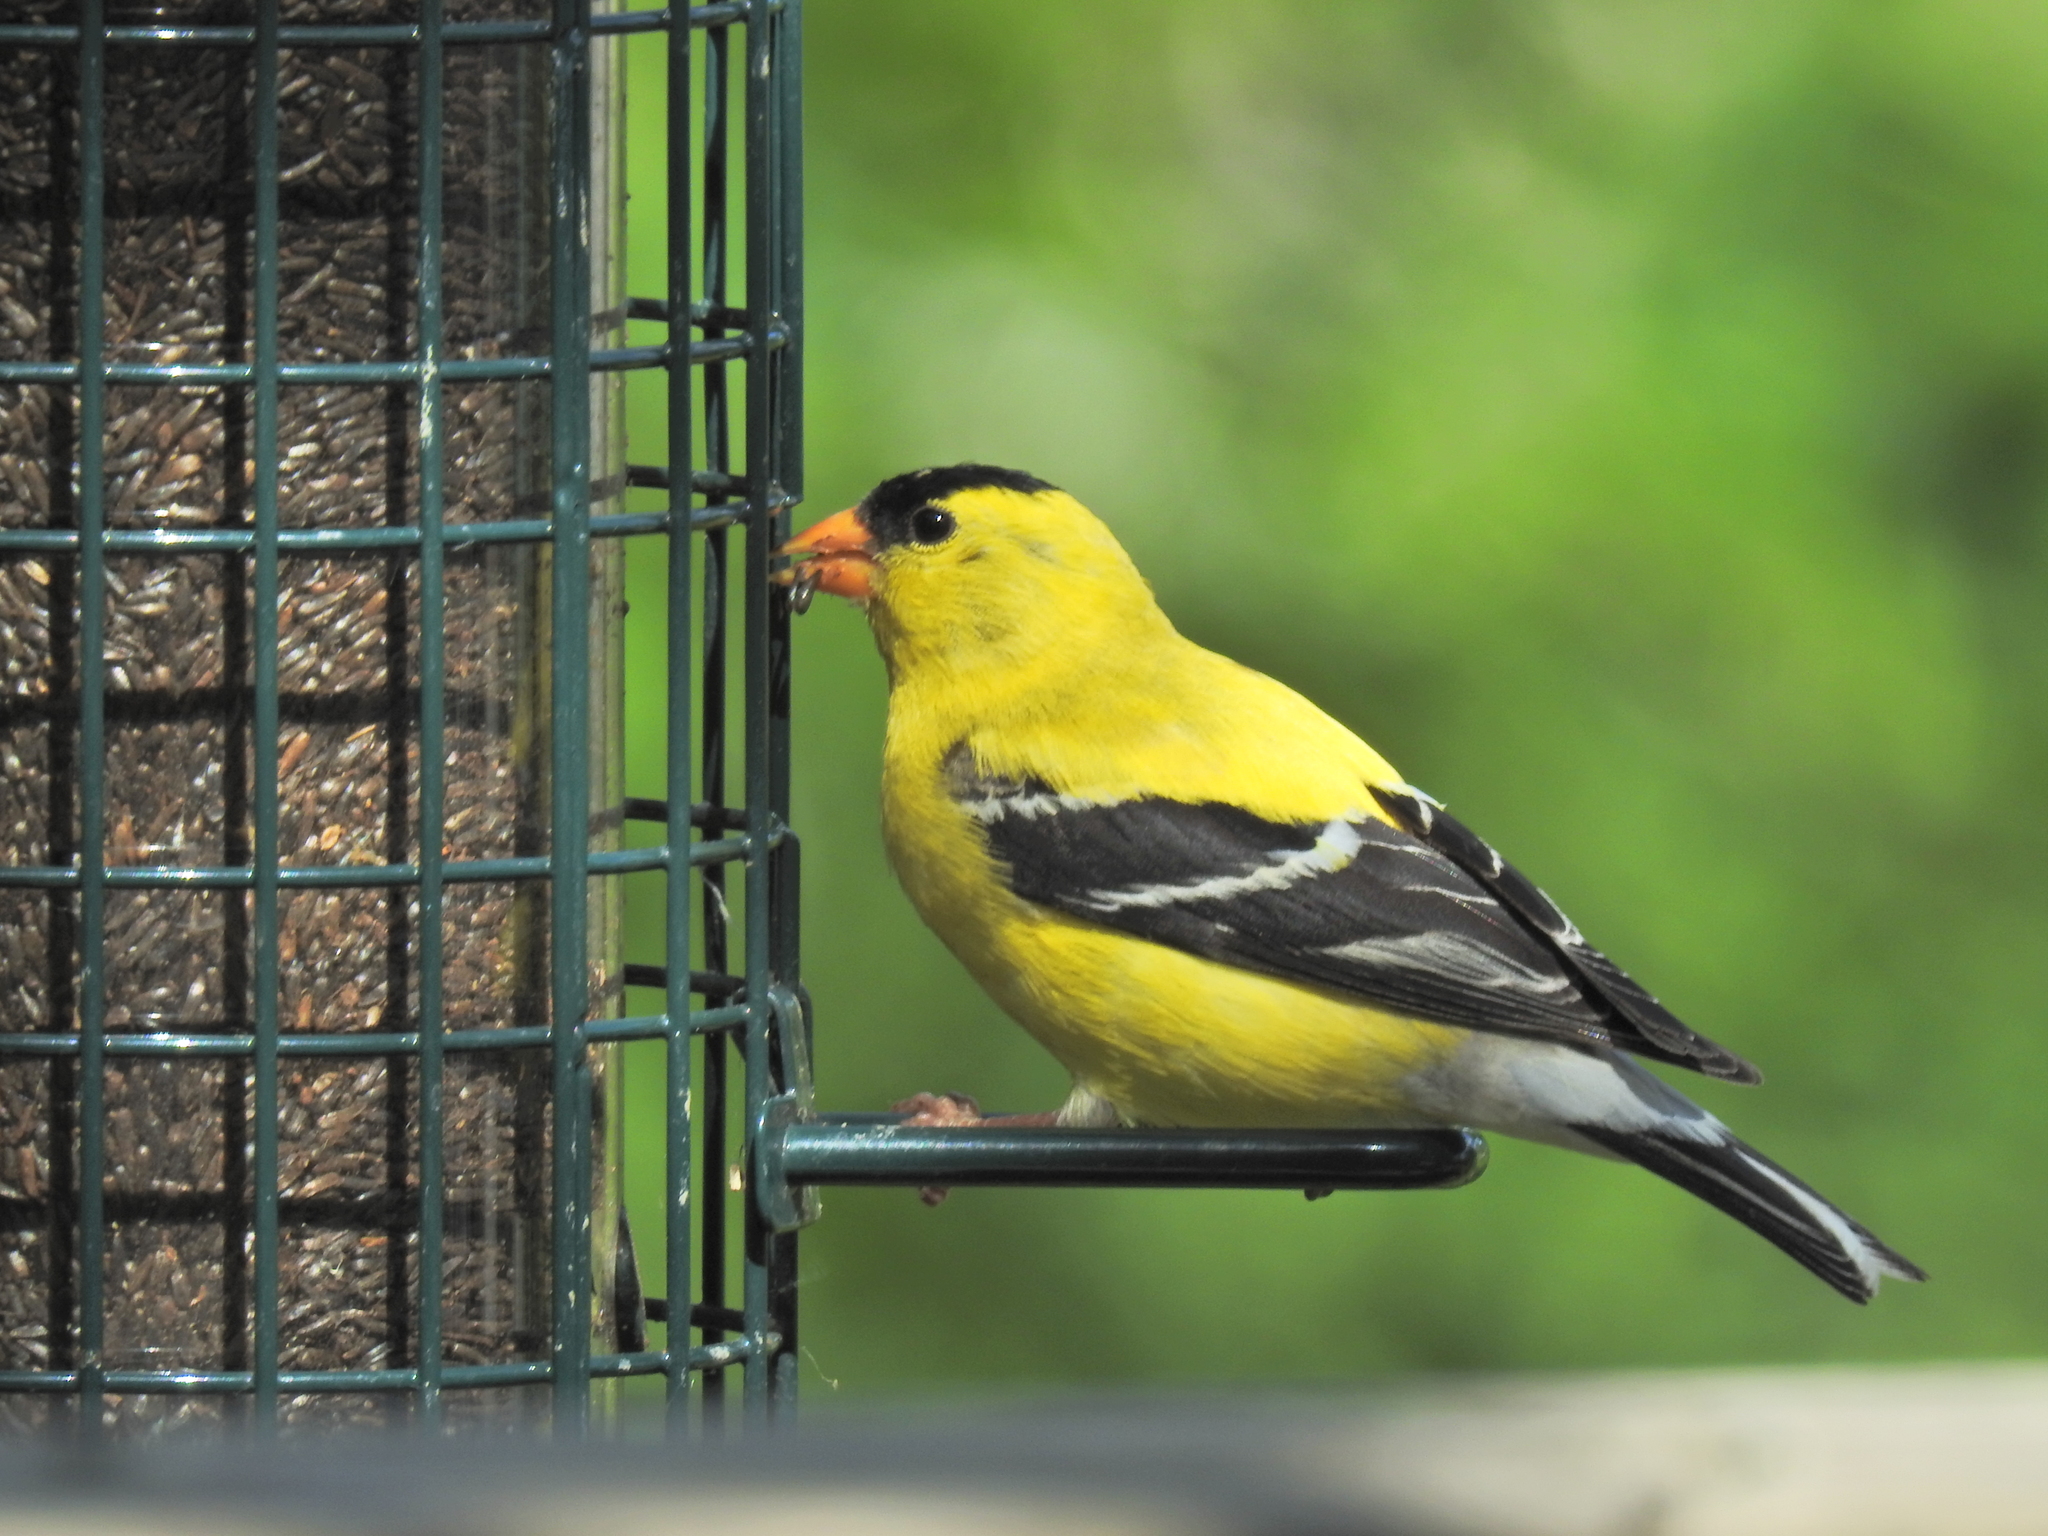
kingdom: Animalia
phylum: Chordata
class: Aves
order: Passeriformes
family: Fringillidae
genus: Spinus
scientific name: Spinus tristis
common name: American goldfinch
